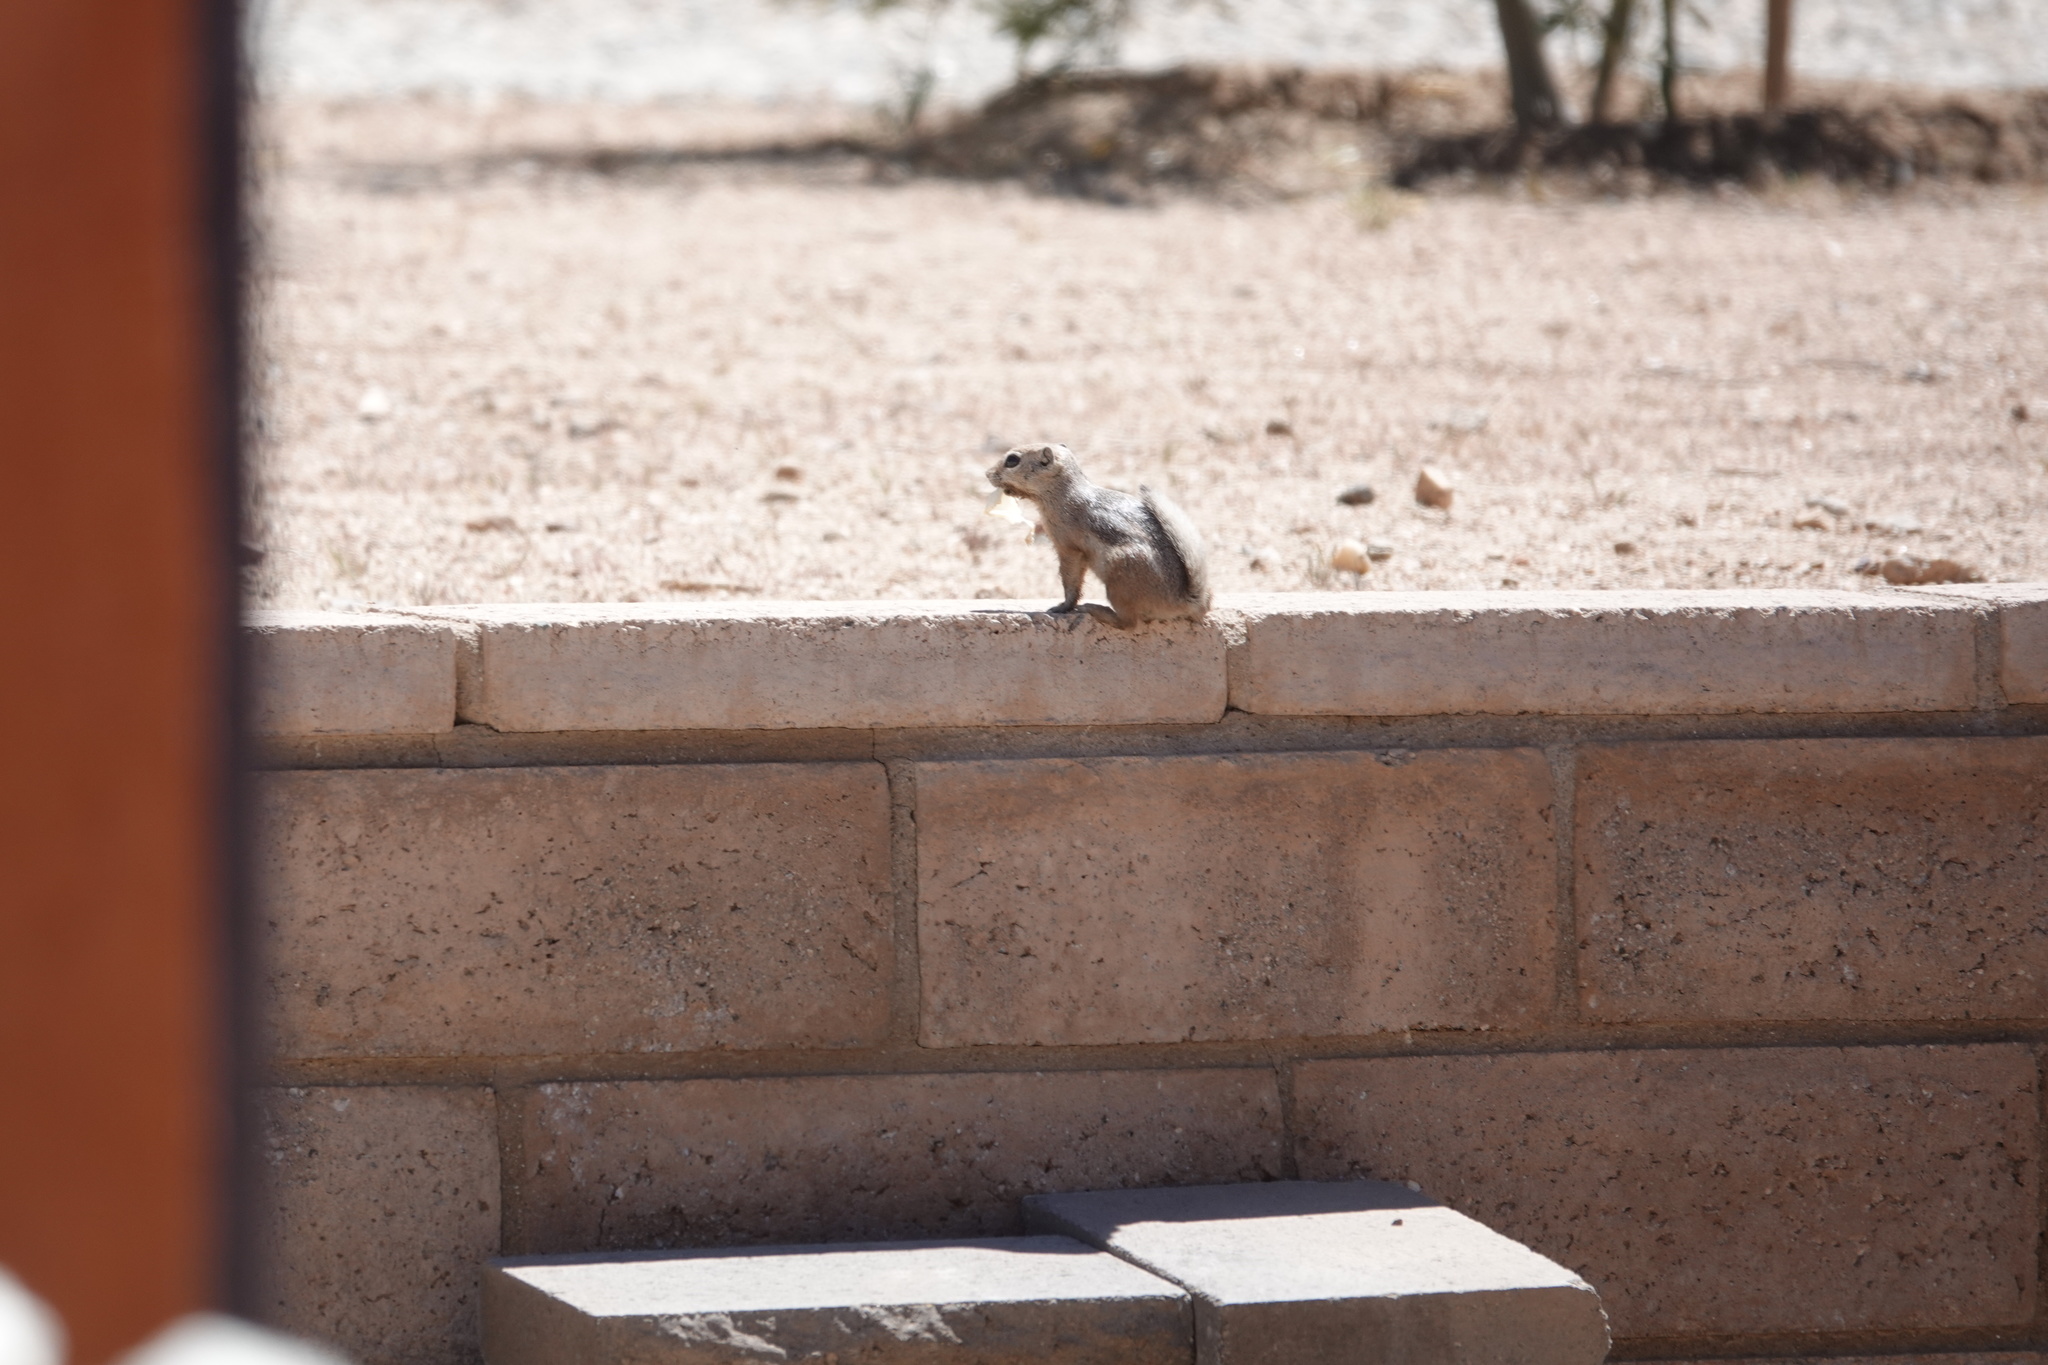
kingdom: Animalia
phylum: Chordata
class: Mammalia
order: Rodentia
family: Sciuridae
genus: Ammospermophilus
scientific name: Ammospermophilus leucurus
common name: White-tailed antelope squirrel
